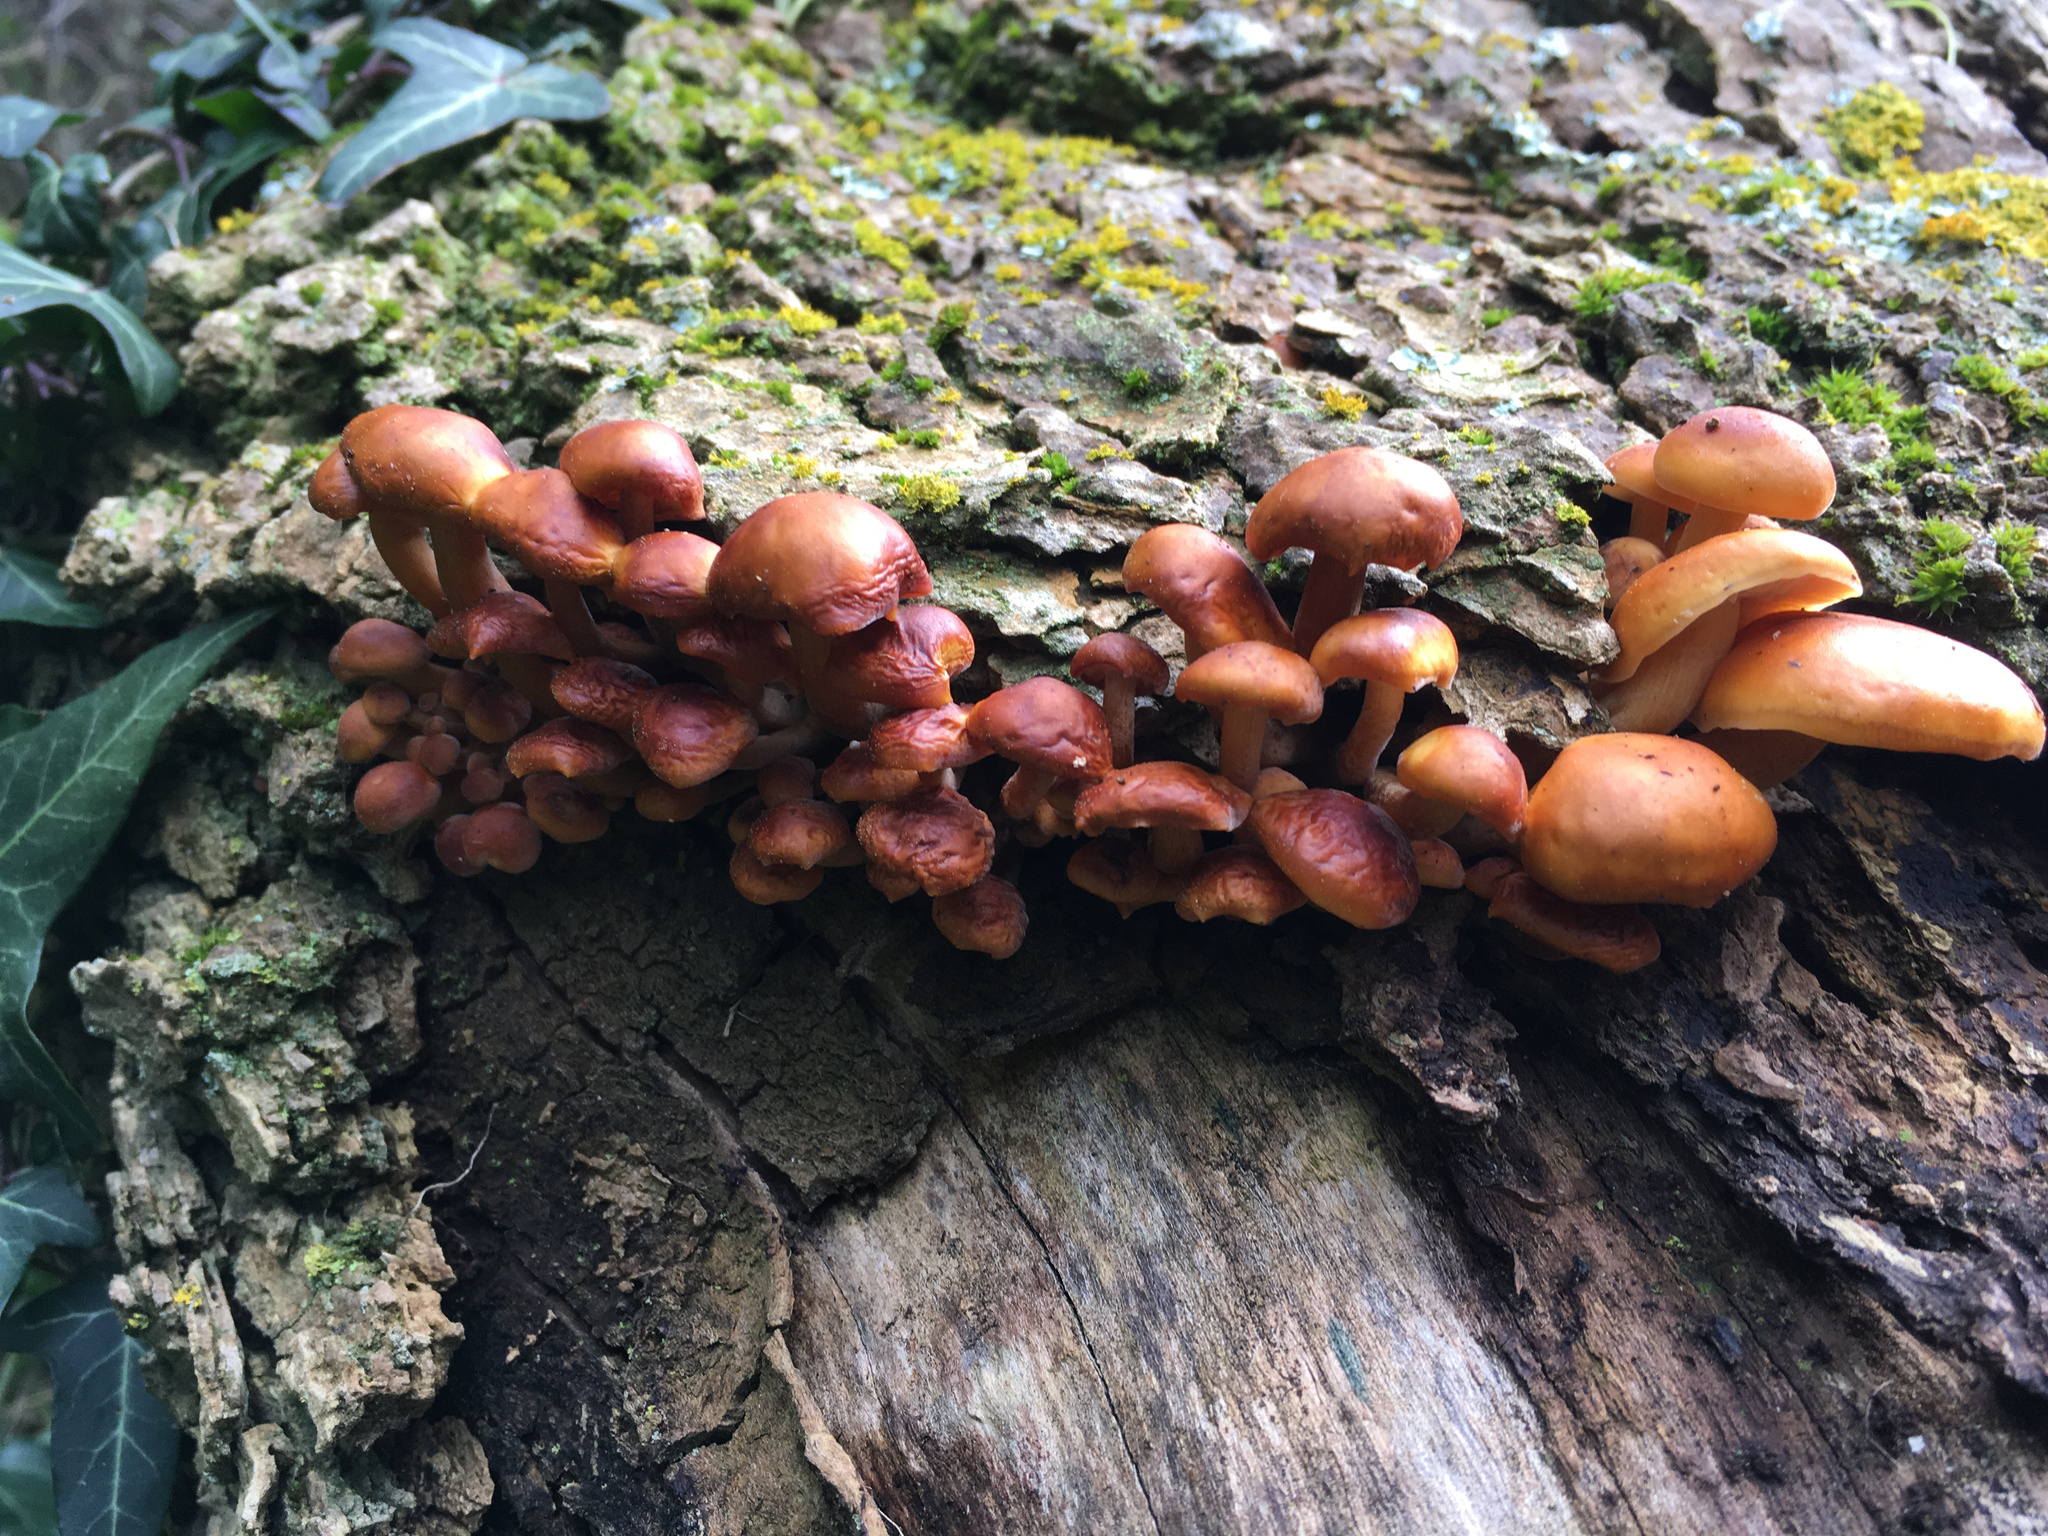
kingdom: Fungi
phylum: Basidiomycota
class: Agaricomycetes
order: Agaricales
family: Physalacriaceae
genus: Flammulina
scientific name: Flammulina velutipes
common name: Velvet shank
